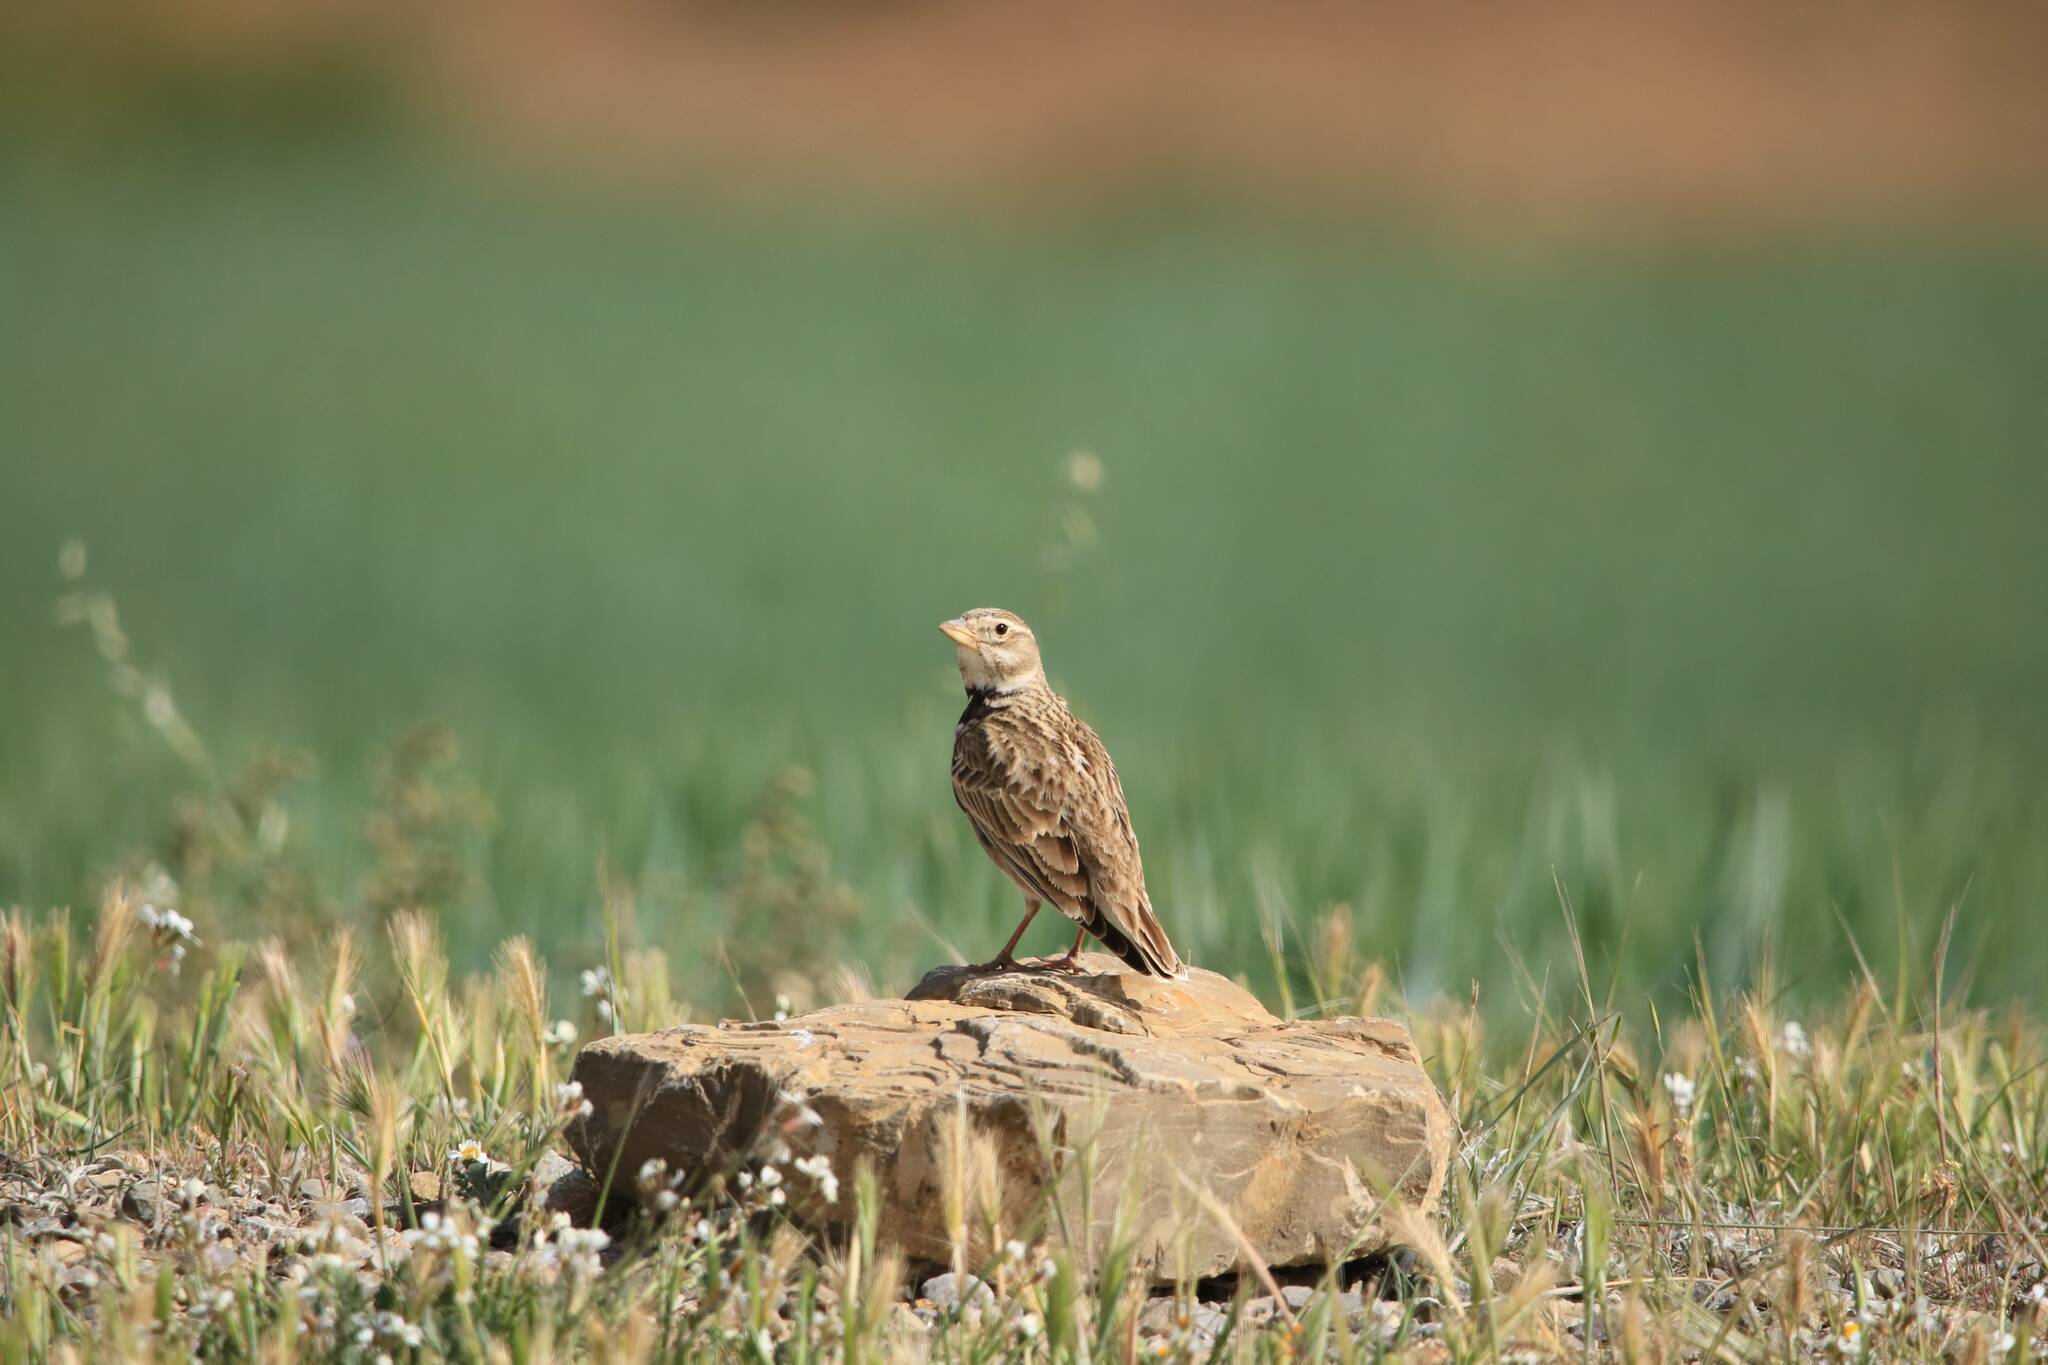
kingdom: Animalia
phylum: Chordata
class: Aves
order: Passeriformes
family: Alaudidae
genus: Melanocorypha
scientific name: Melanocorypha calandra
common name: Calandra lark
